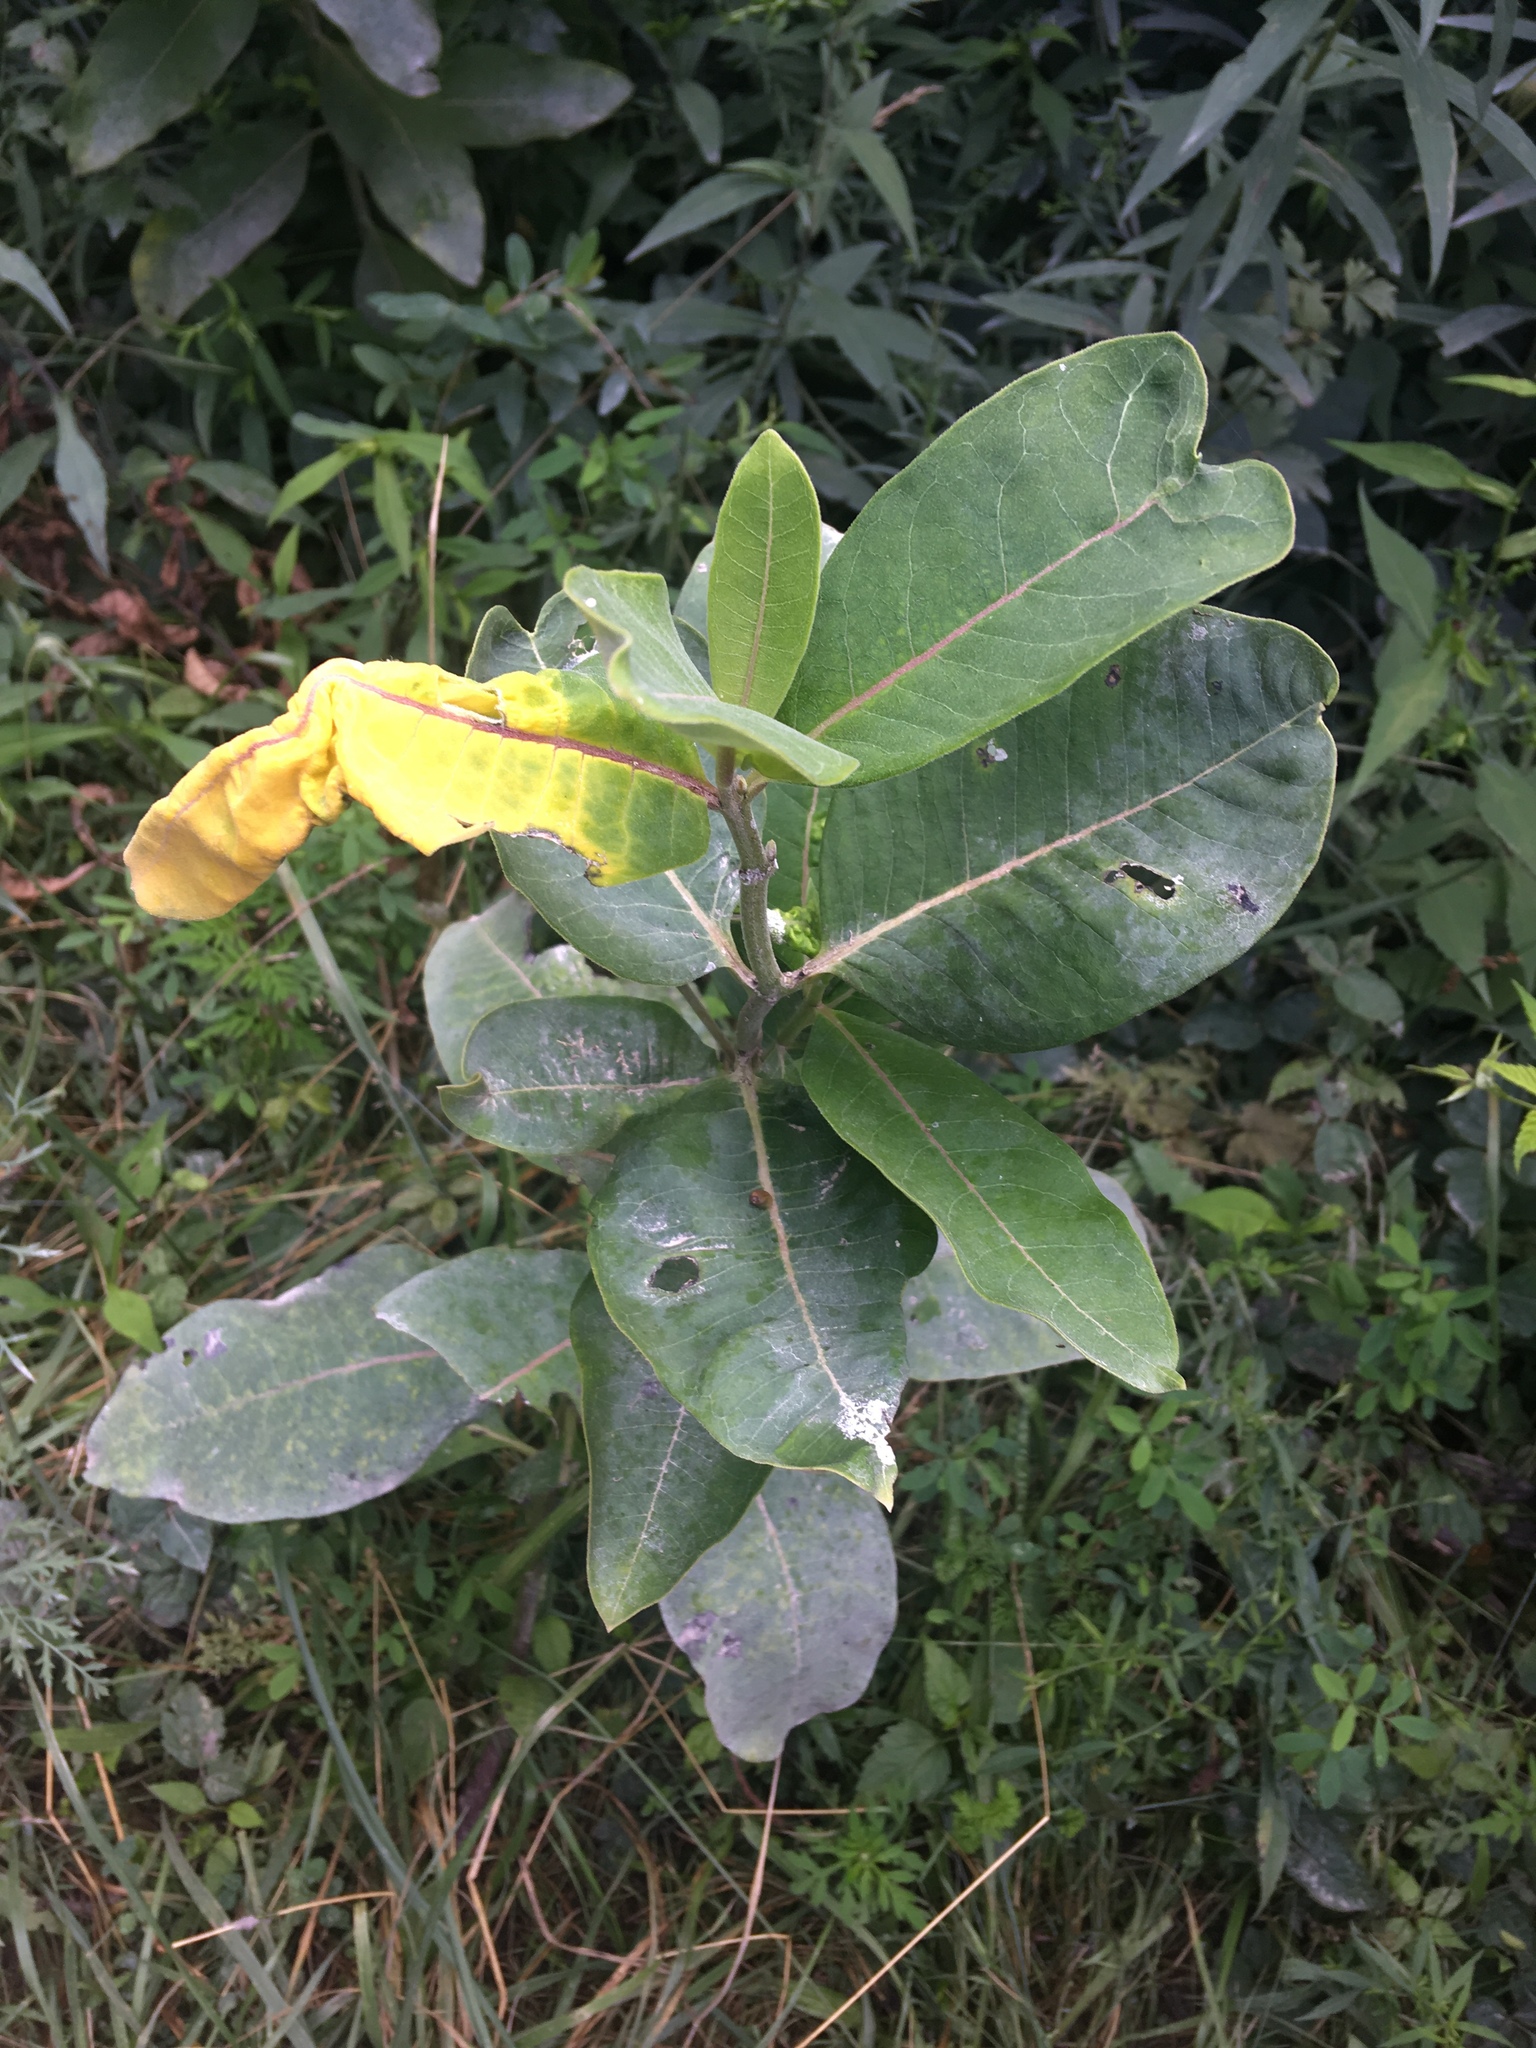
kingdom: Plantae
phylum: Tracheophyta
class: Magnoliopsida
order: Gentianales
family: Apocynaceae
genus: Asclepias
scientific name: Asclepias syriaca
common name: Common milkweed
